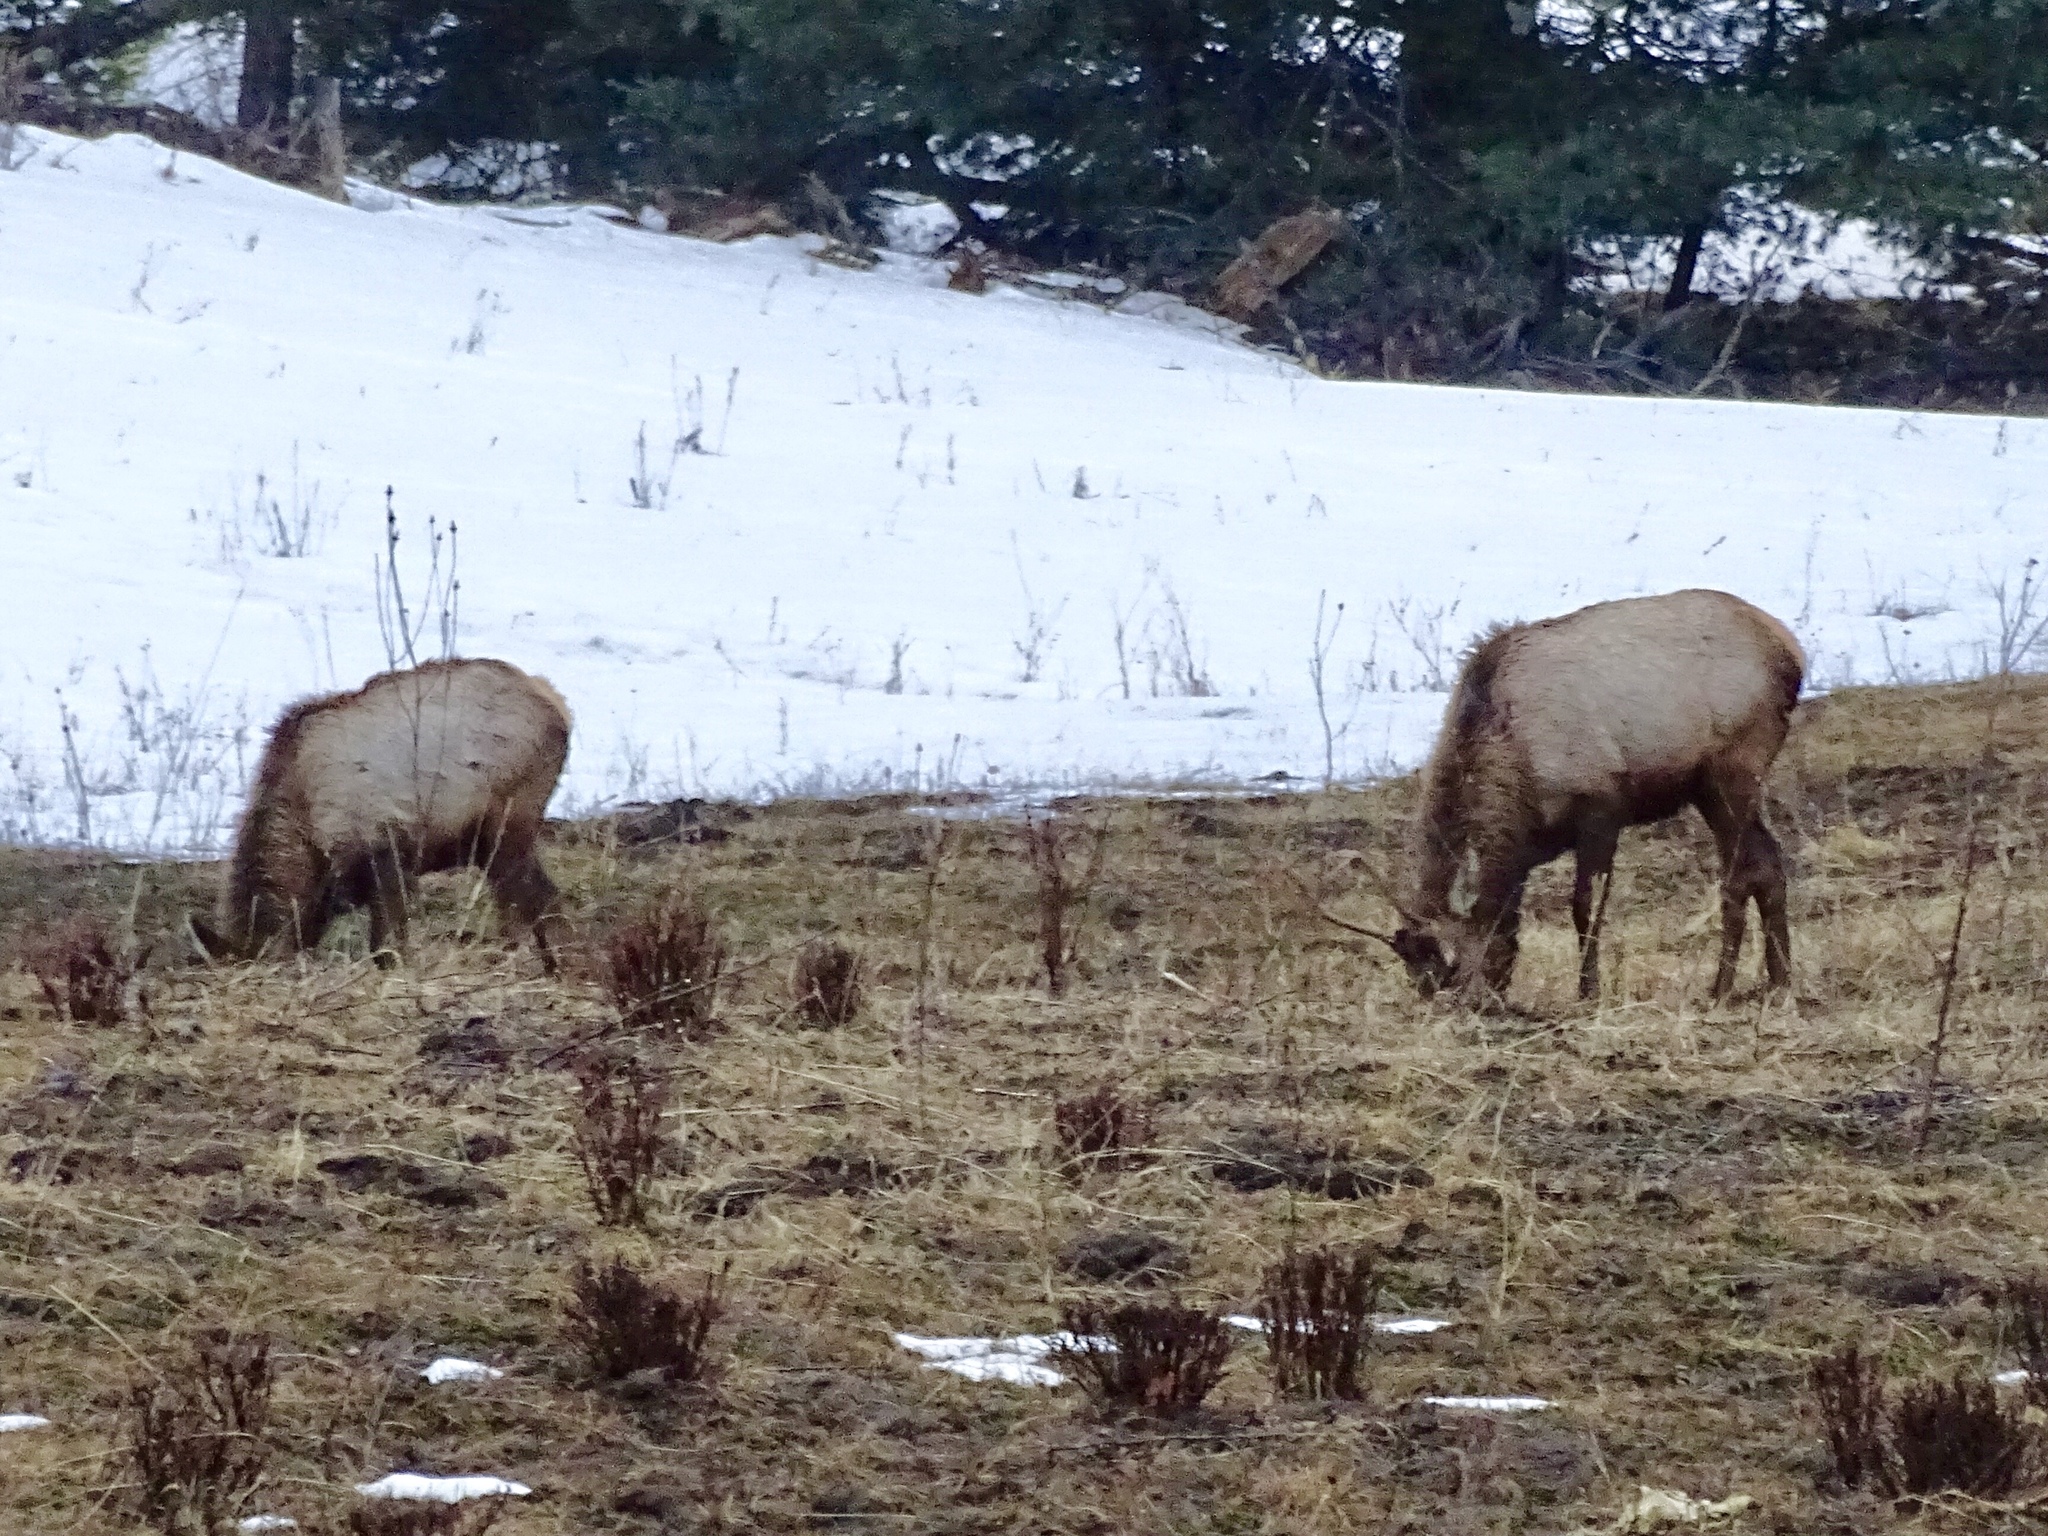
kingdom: Animalia
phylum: Chordata
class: Mammalia
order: Artiodactyla
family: Cervidae
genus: Cervus
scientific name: Cervus elaphus
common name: Red deer
